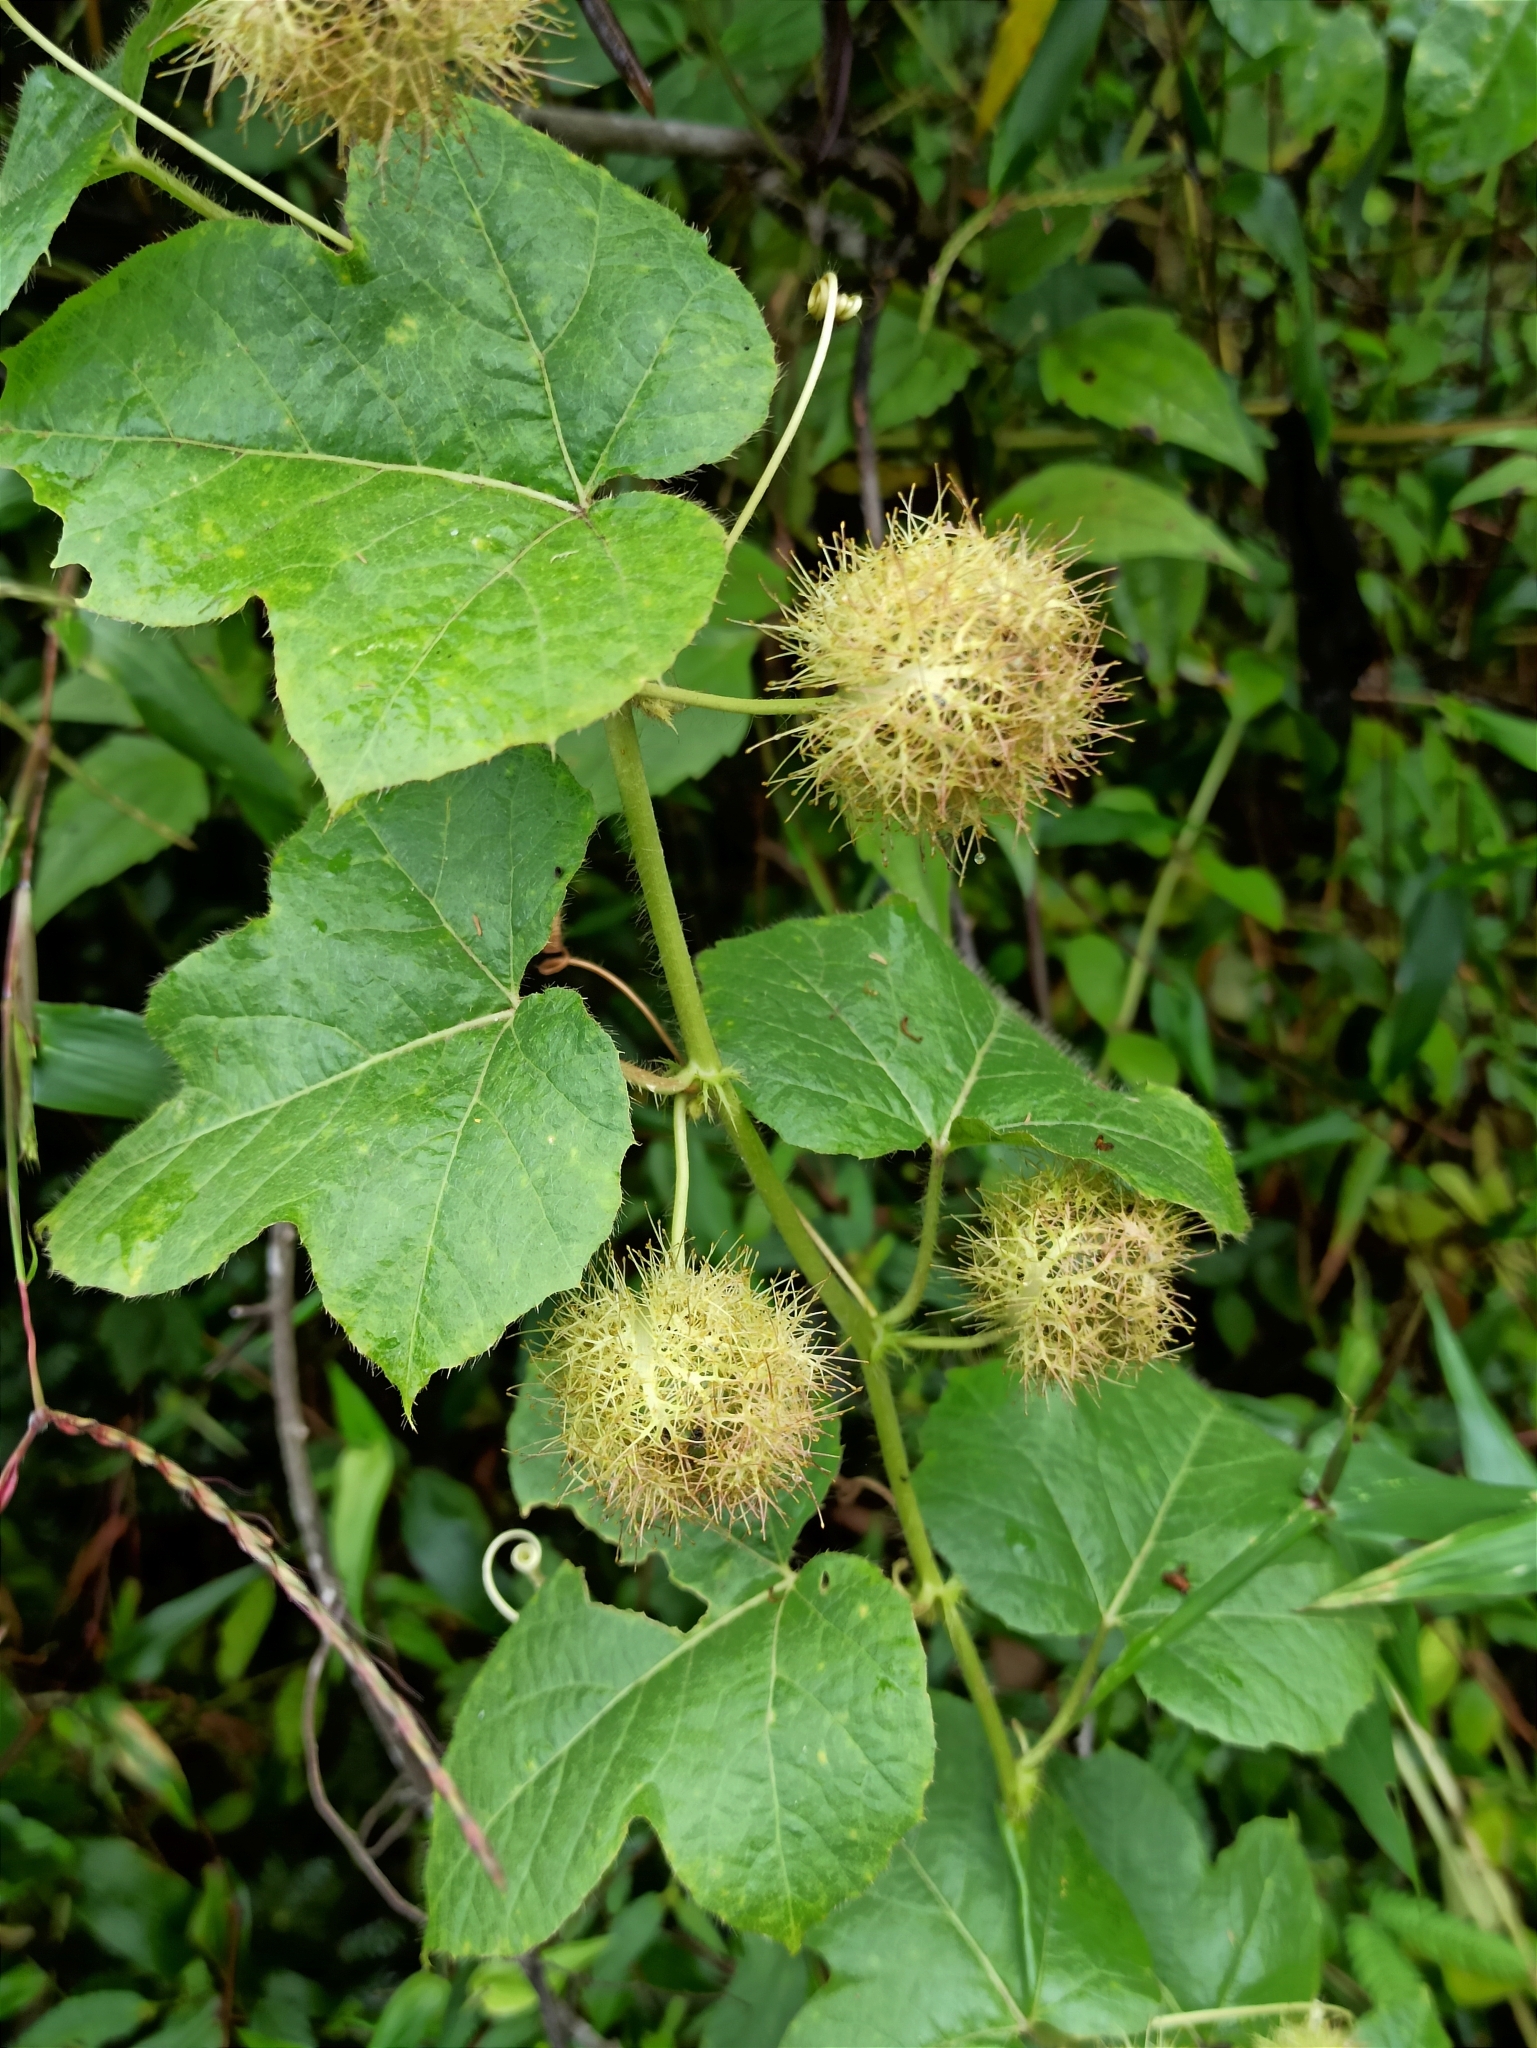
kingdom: Plantae
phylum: Tracheophyta
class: Magnoliopsida
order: Malpighiales
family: Passifloraceae
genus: Passiflora
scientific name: Passiflora vesicaria
